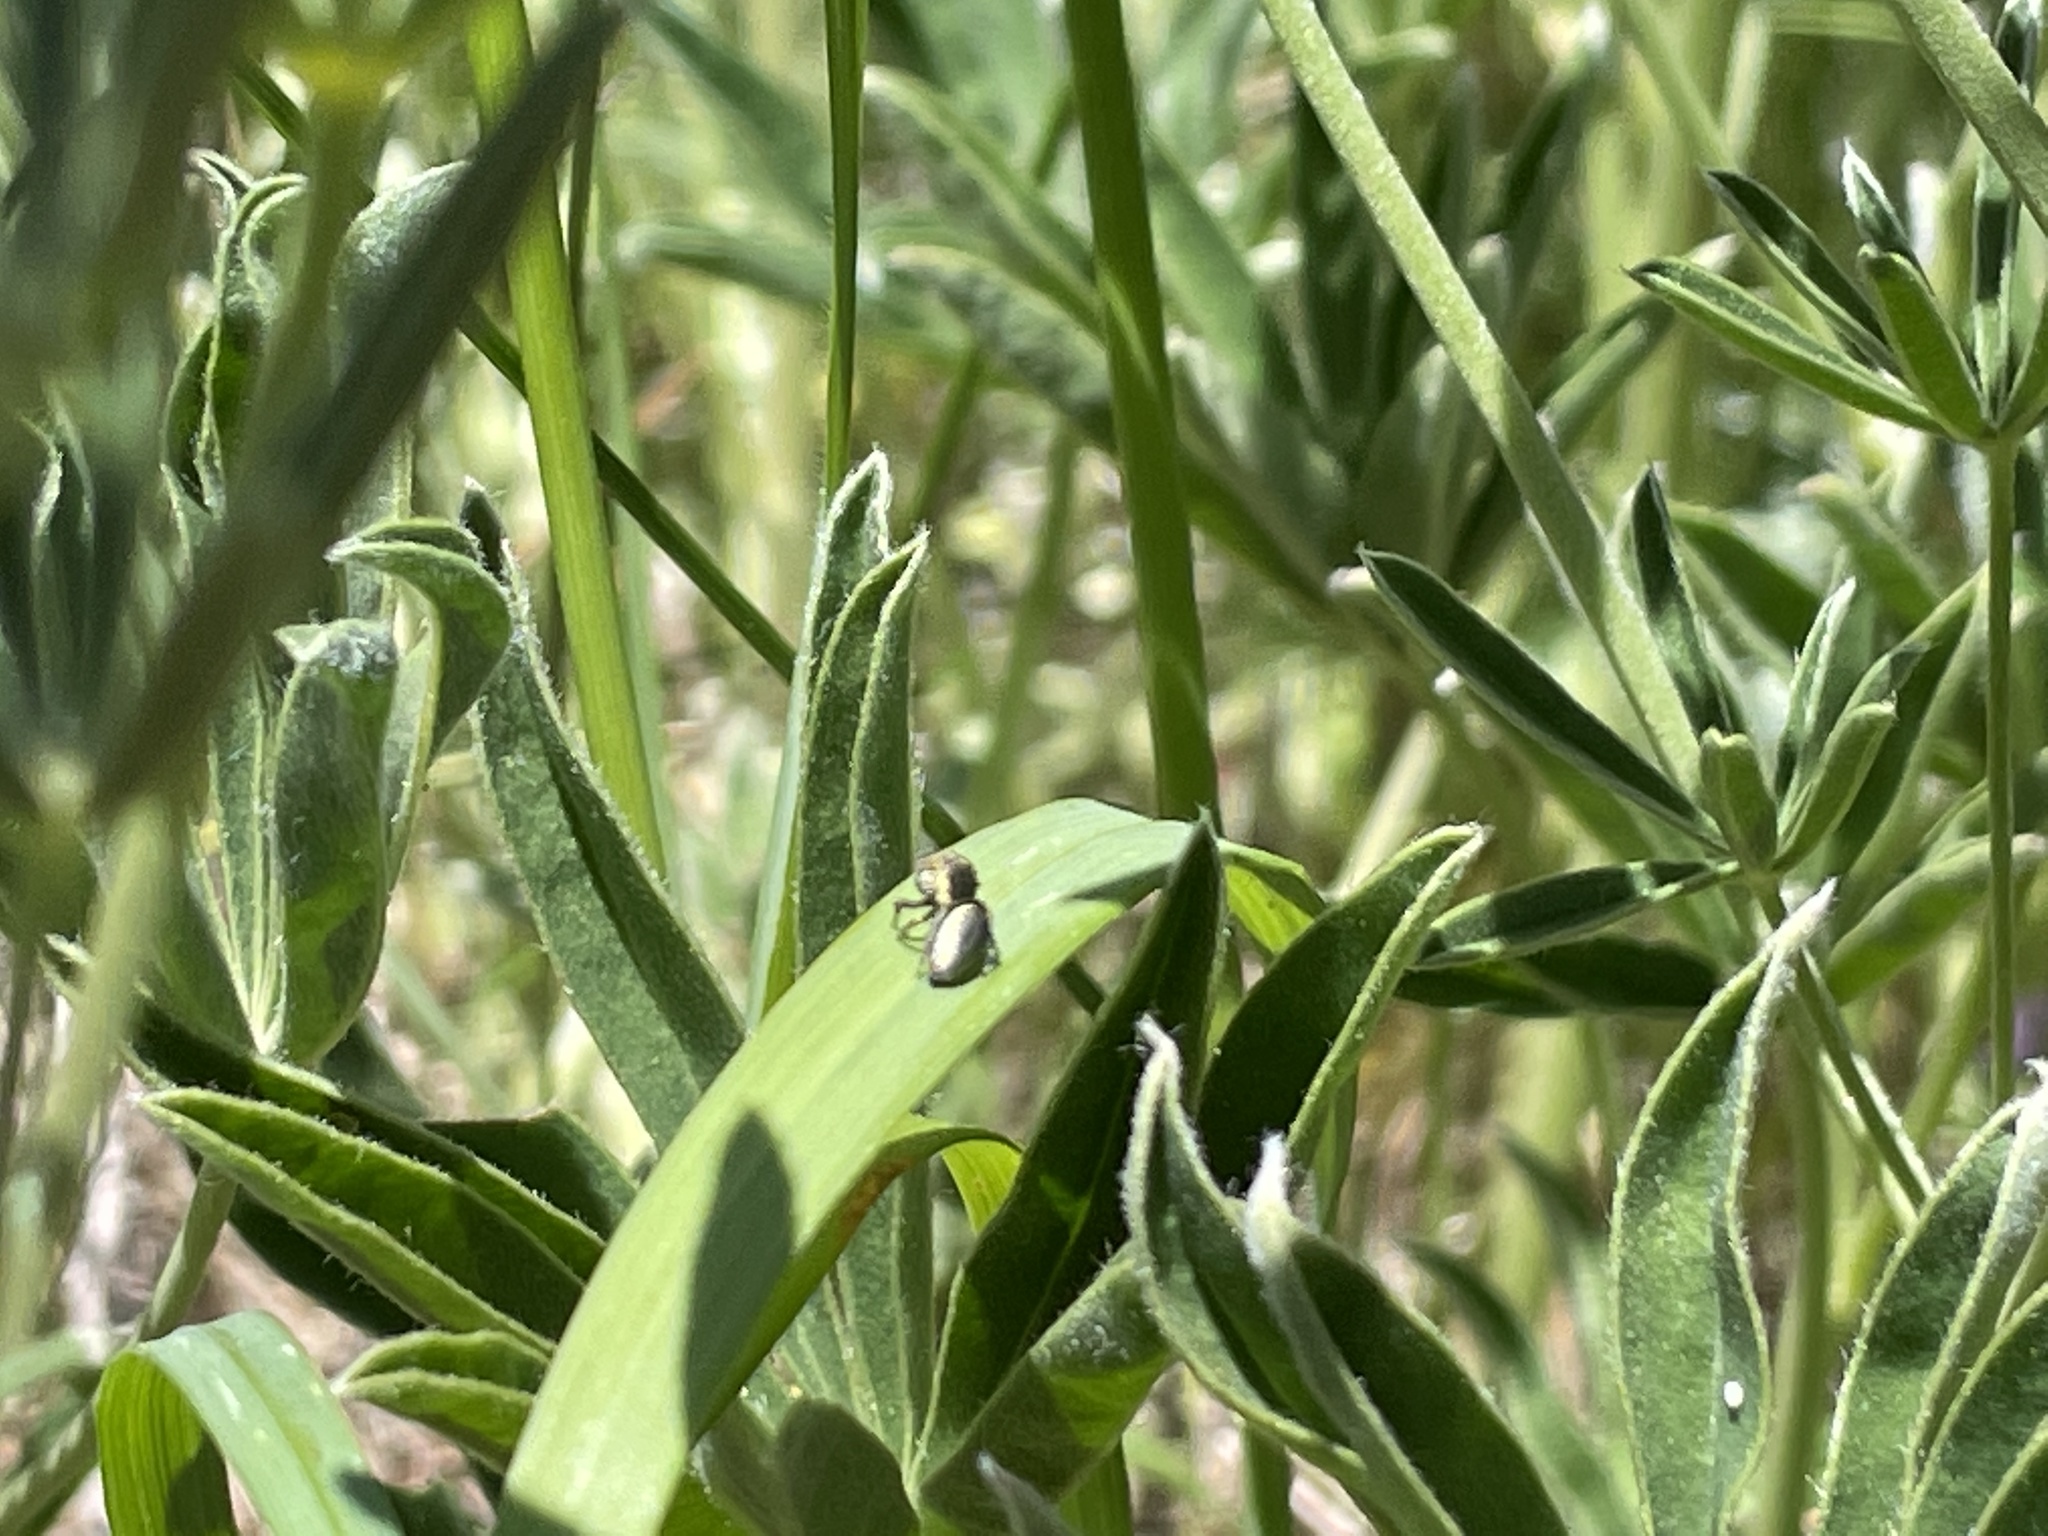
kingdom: Animalia
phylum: Arthropoda
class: Arachnida
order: Araneae
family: Salticidae
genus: Sassacus
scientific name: Sassacus papenhoei
